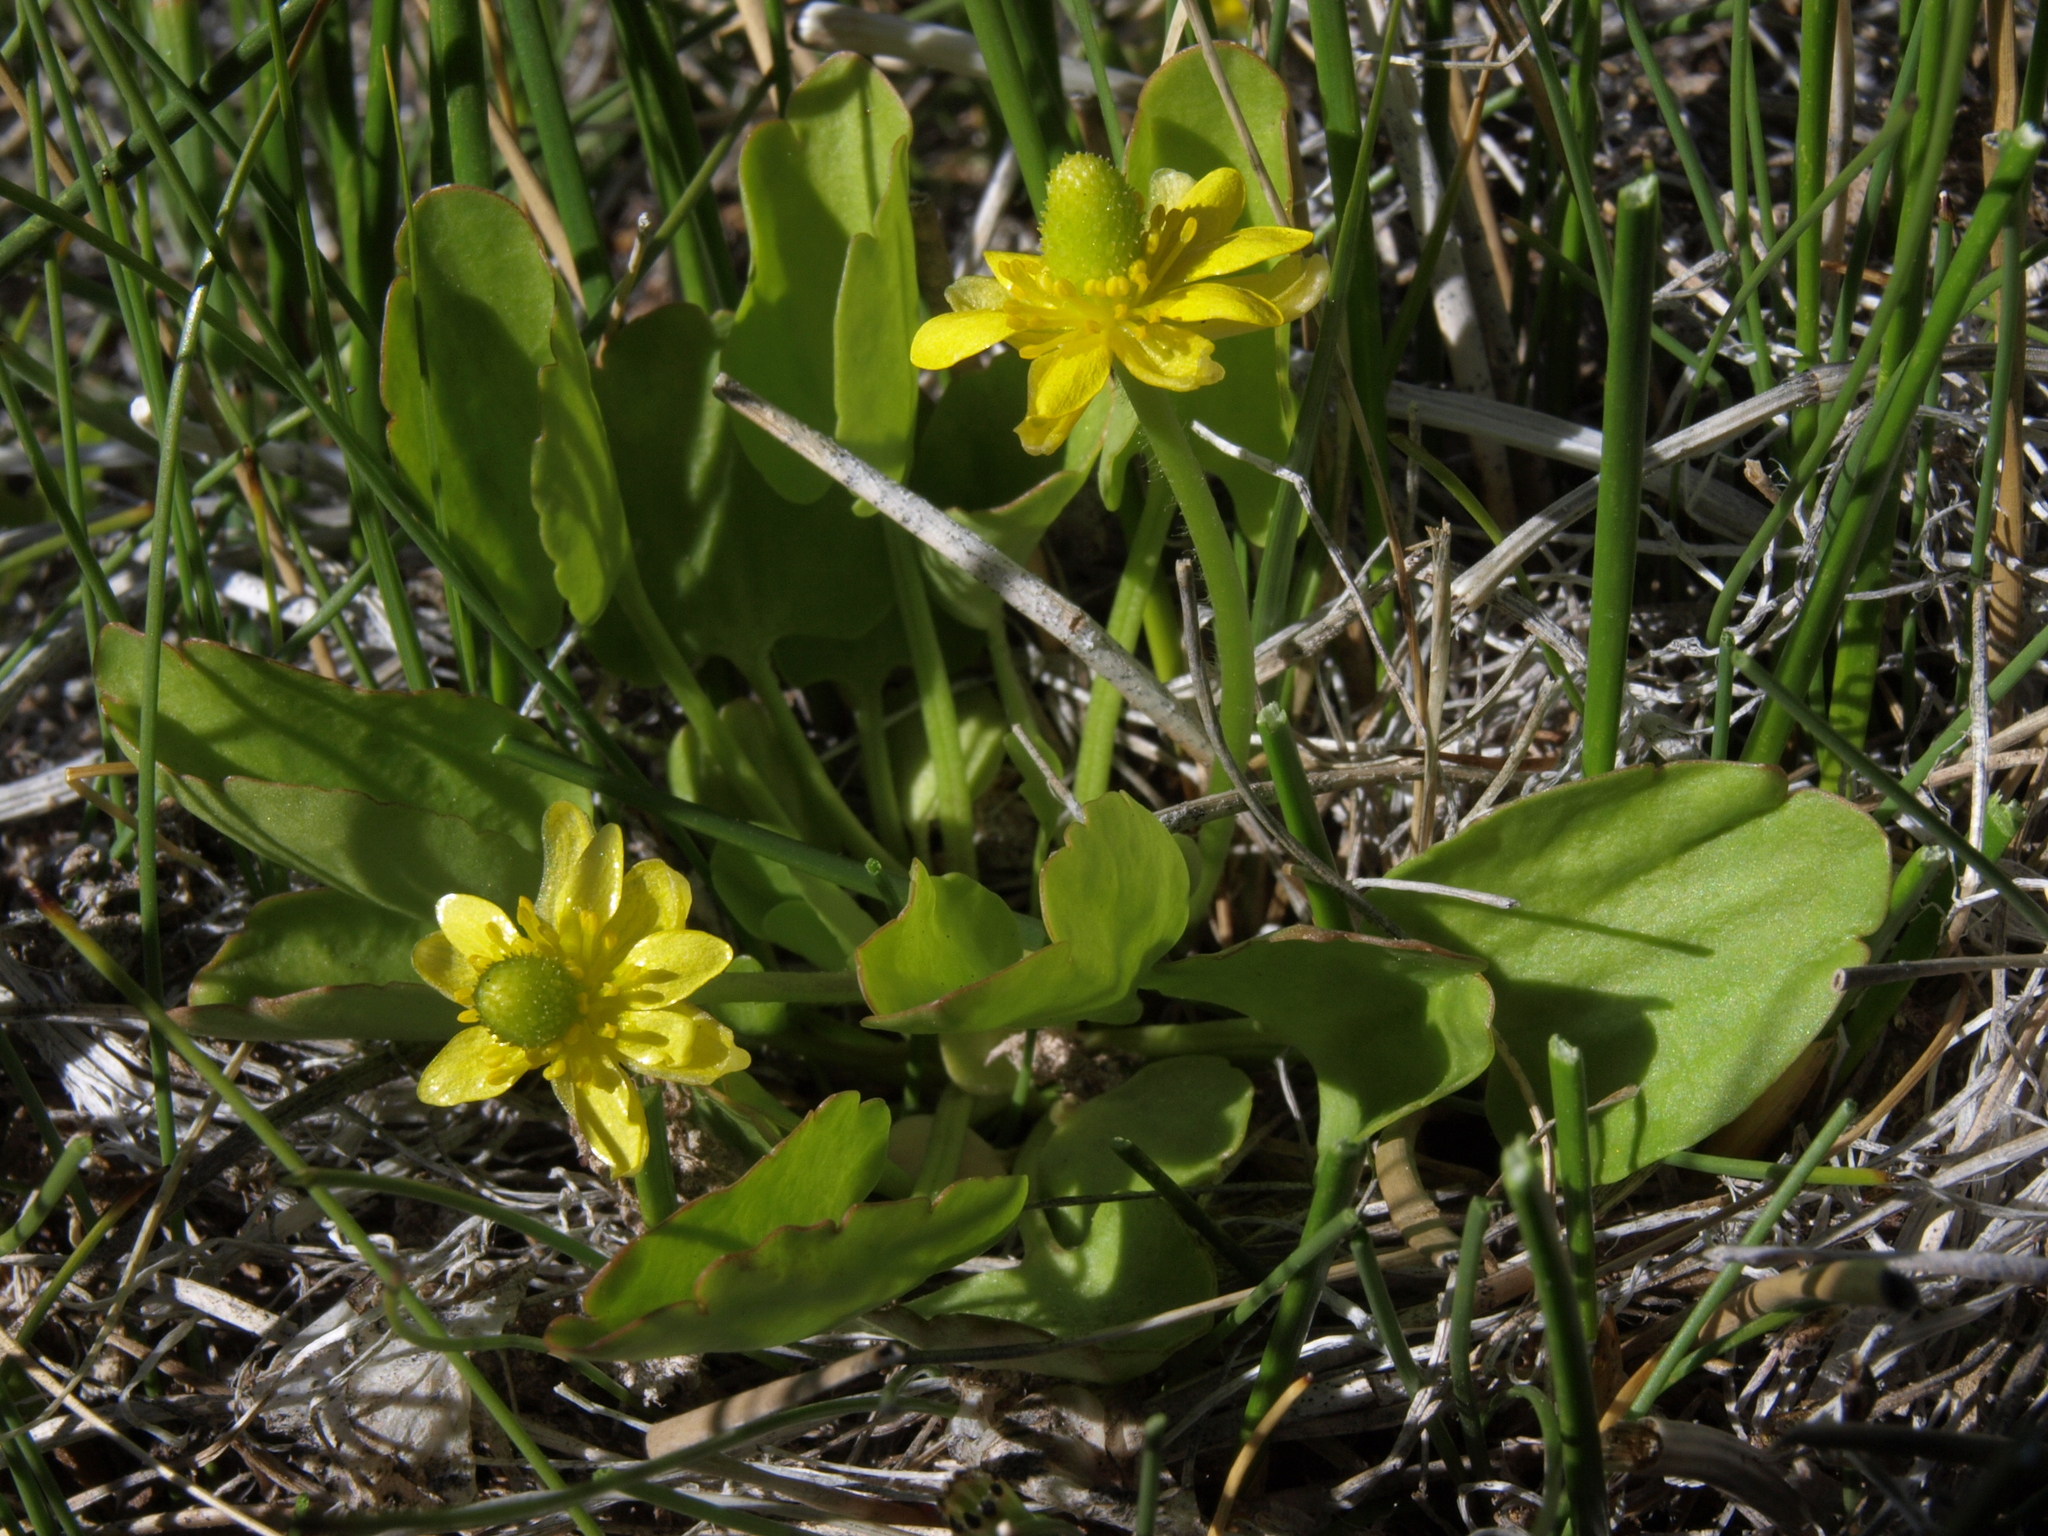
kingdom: Plantae
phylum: Tracheophyta
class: Magnoliopsida
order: Ranunculales
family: Ranunculaceae
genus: Halerpestes
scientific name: Halerpestes cymbalaria
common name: Seaside crowfoot
